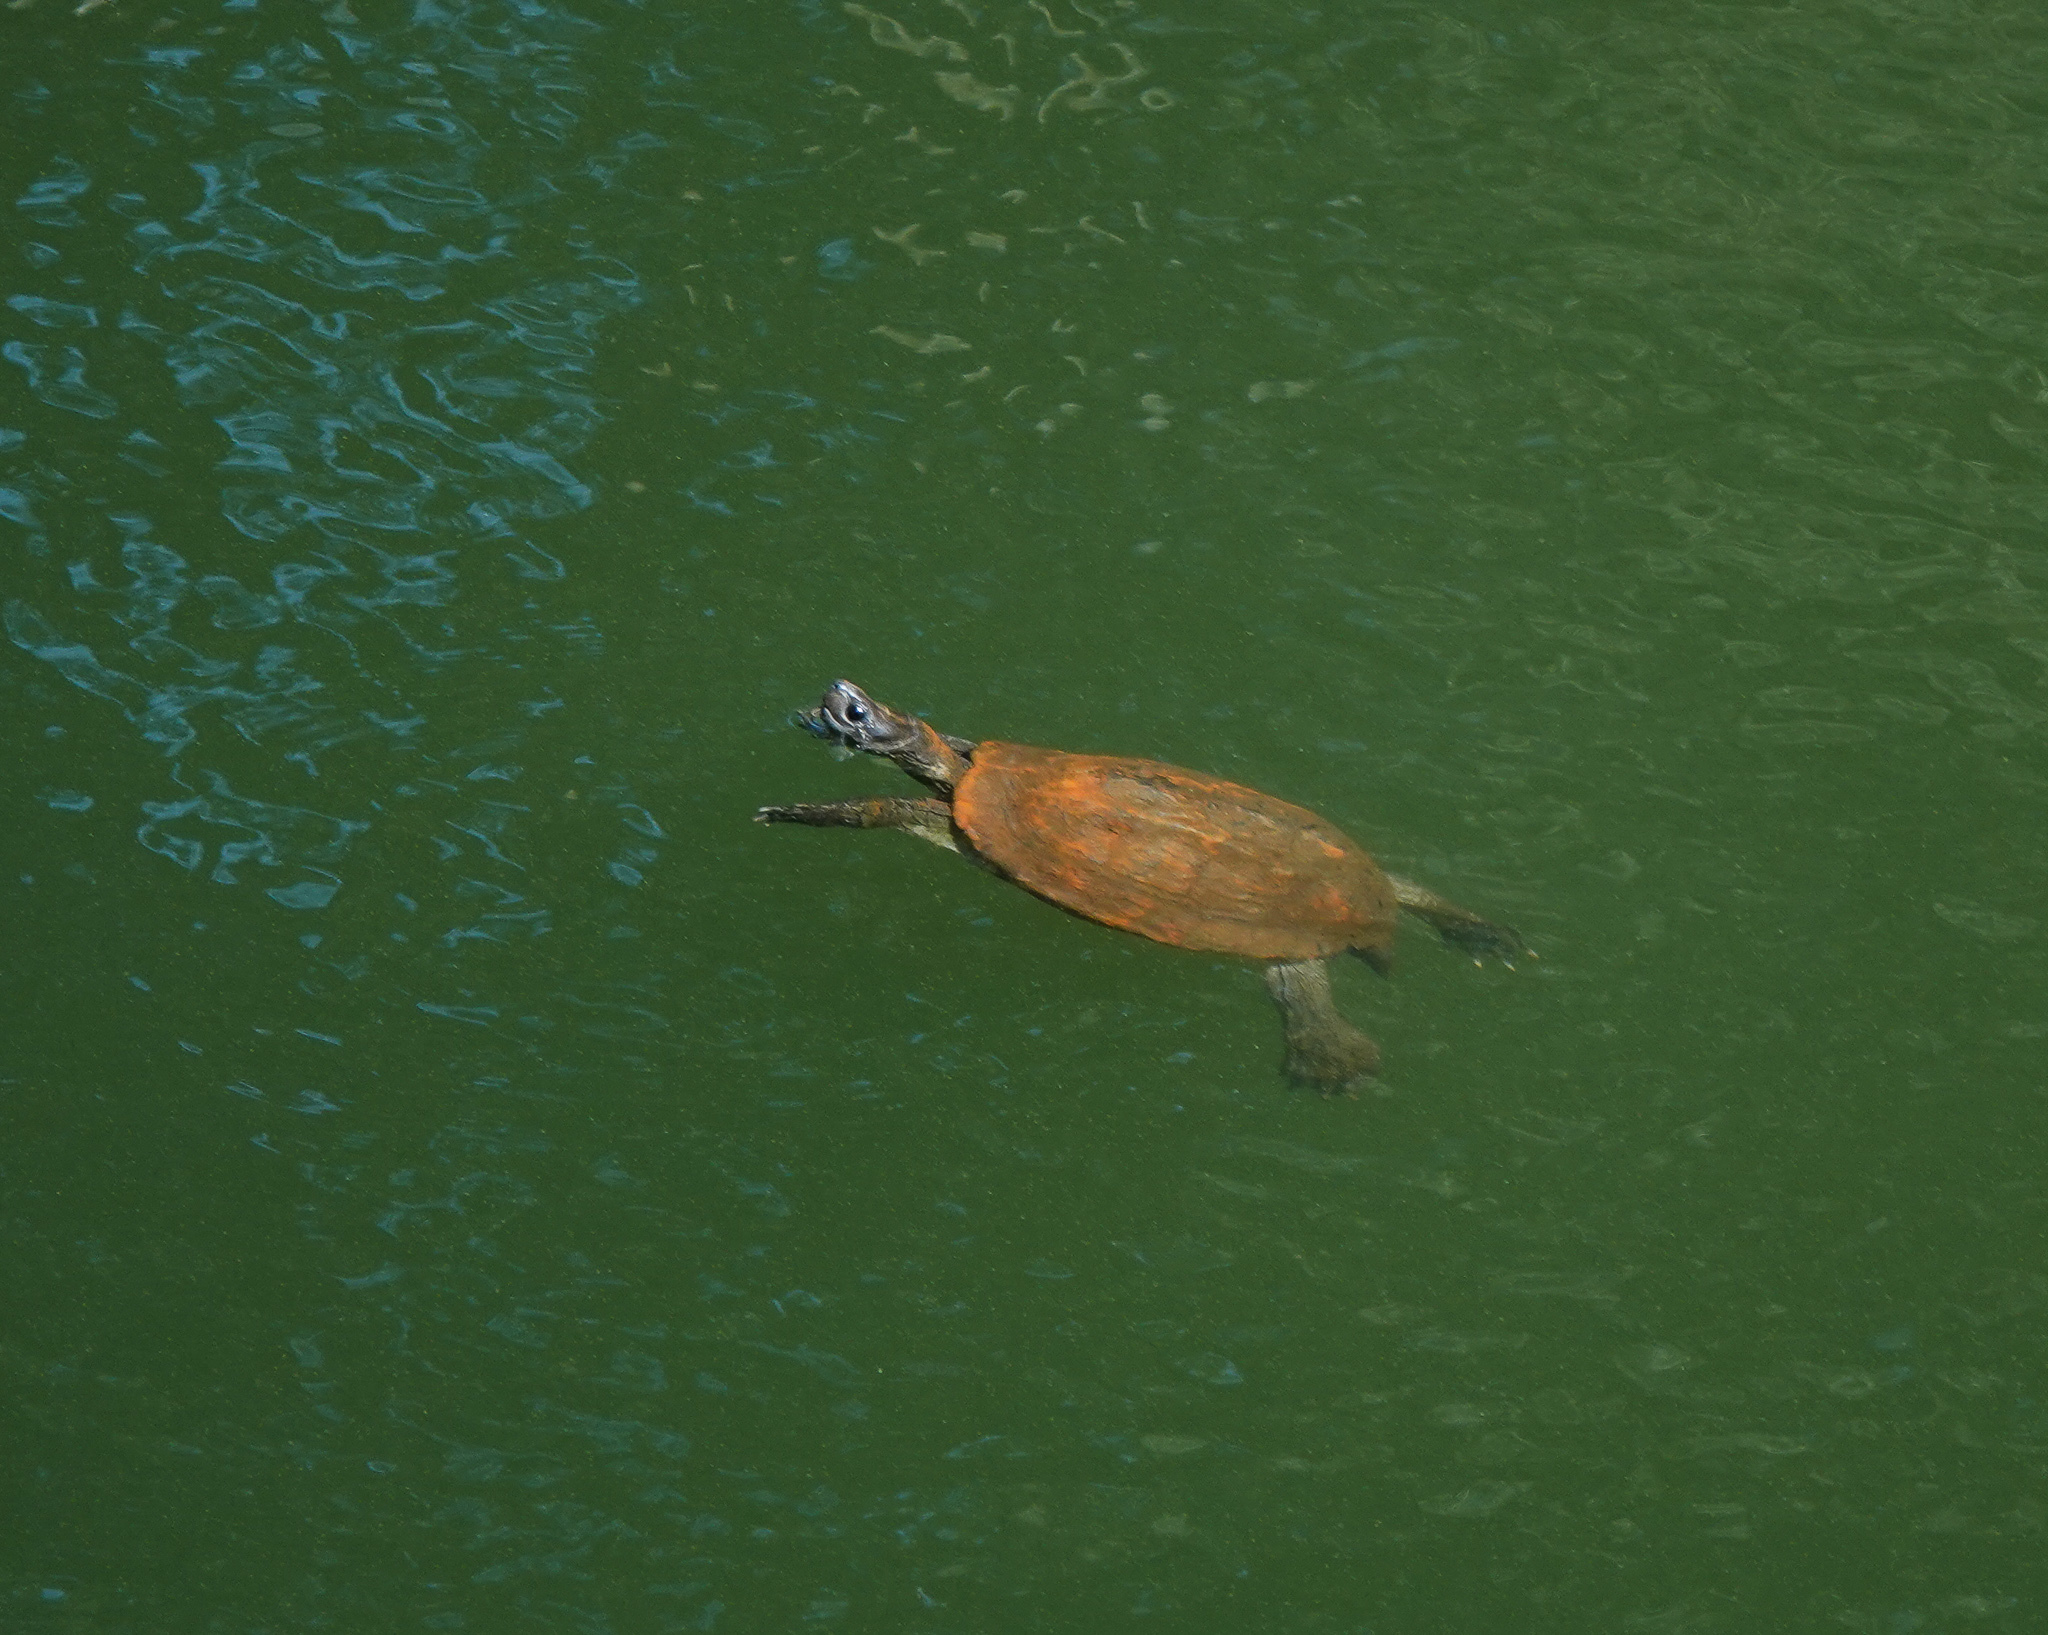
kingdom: Animalia
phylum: Chordata
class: Testudines
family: Geoemydidae
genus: Melanochelys
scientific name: Melanochelys trijuga
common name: Indian black turtle
